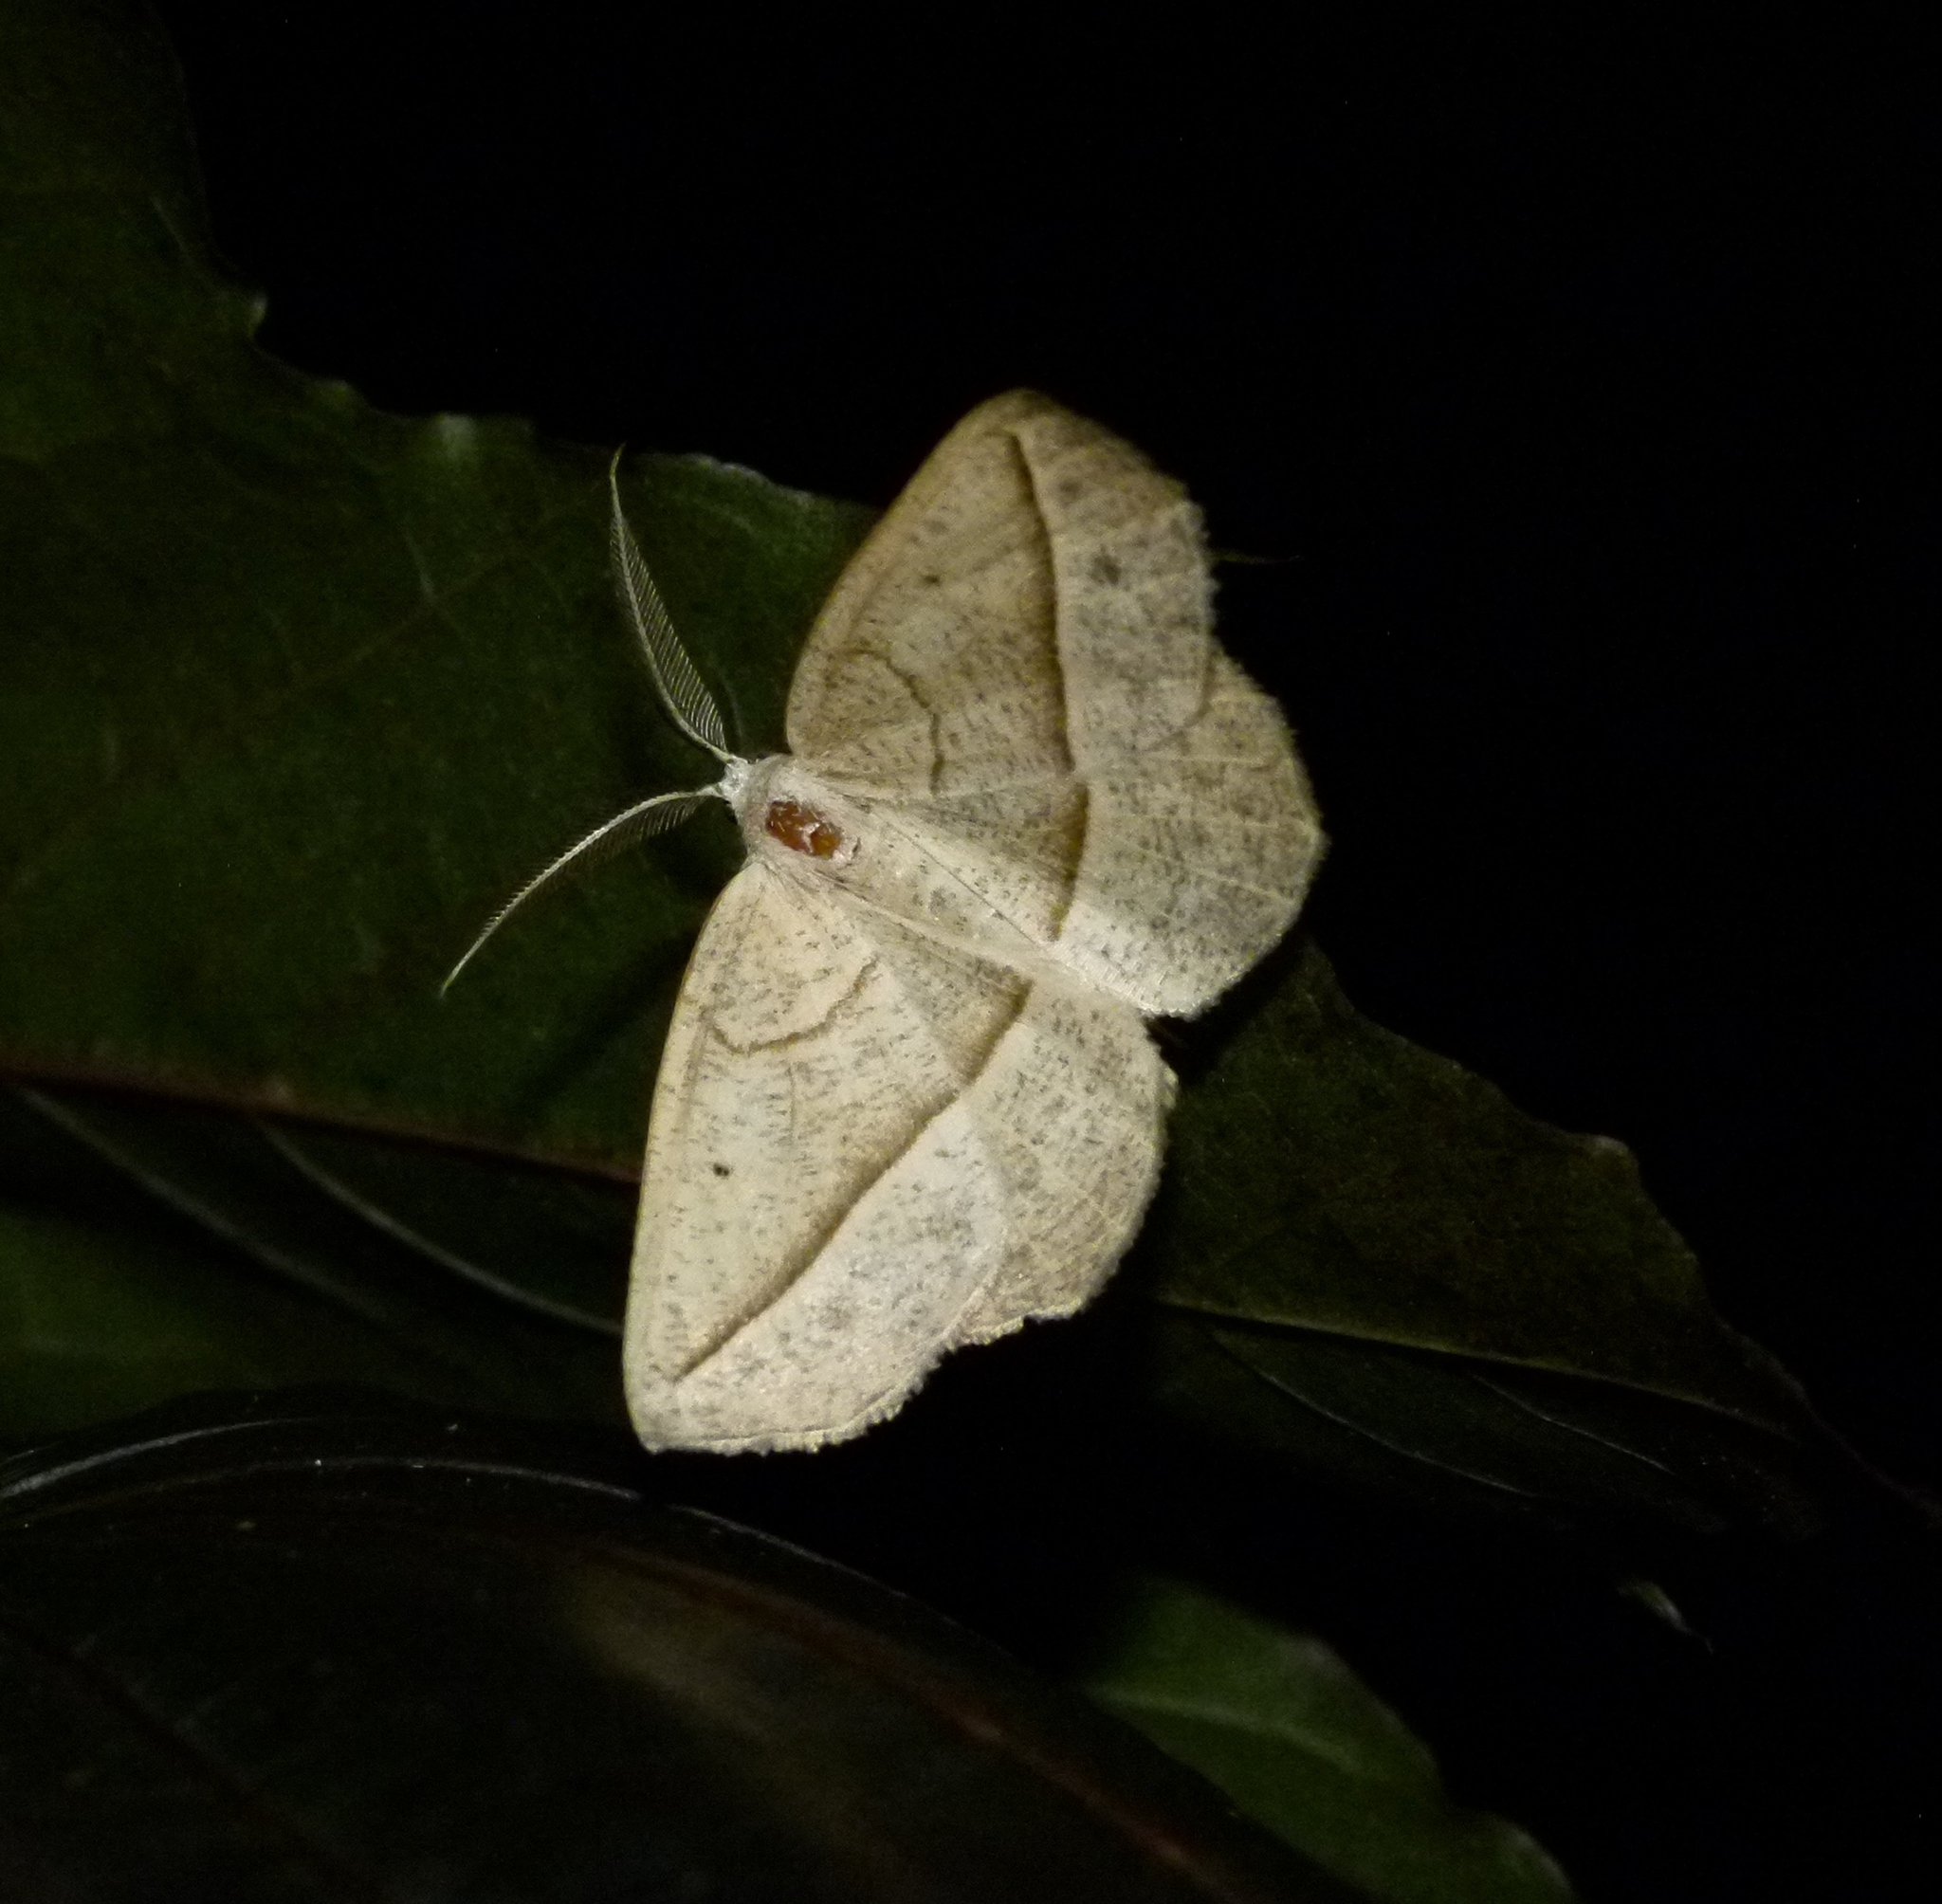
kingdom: Animalia
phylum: Arthropoda
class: Insecta
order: Lepidoptera
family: Geometridae
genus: Eusarca
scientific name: Eusarca confusaria
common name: Confused eusarca
